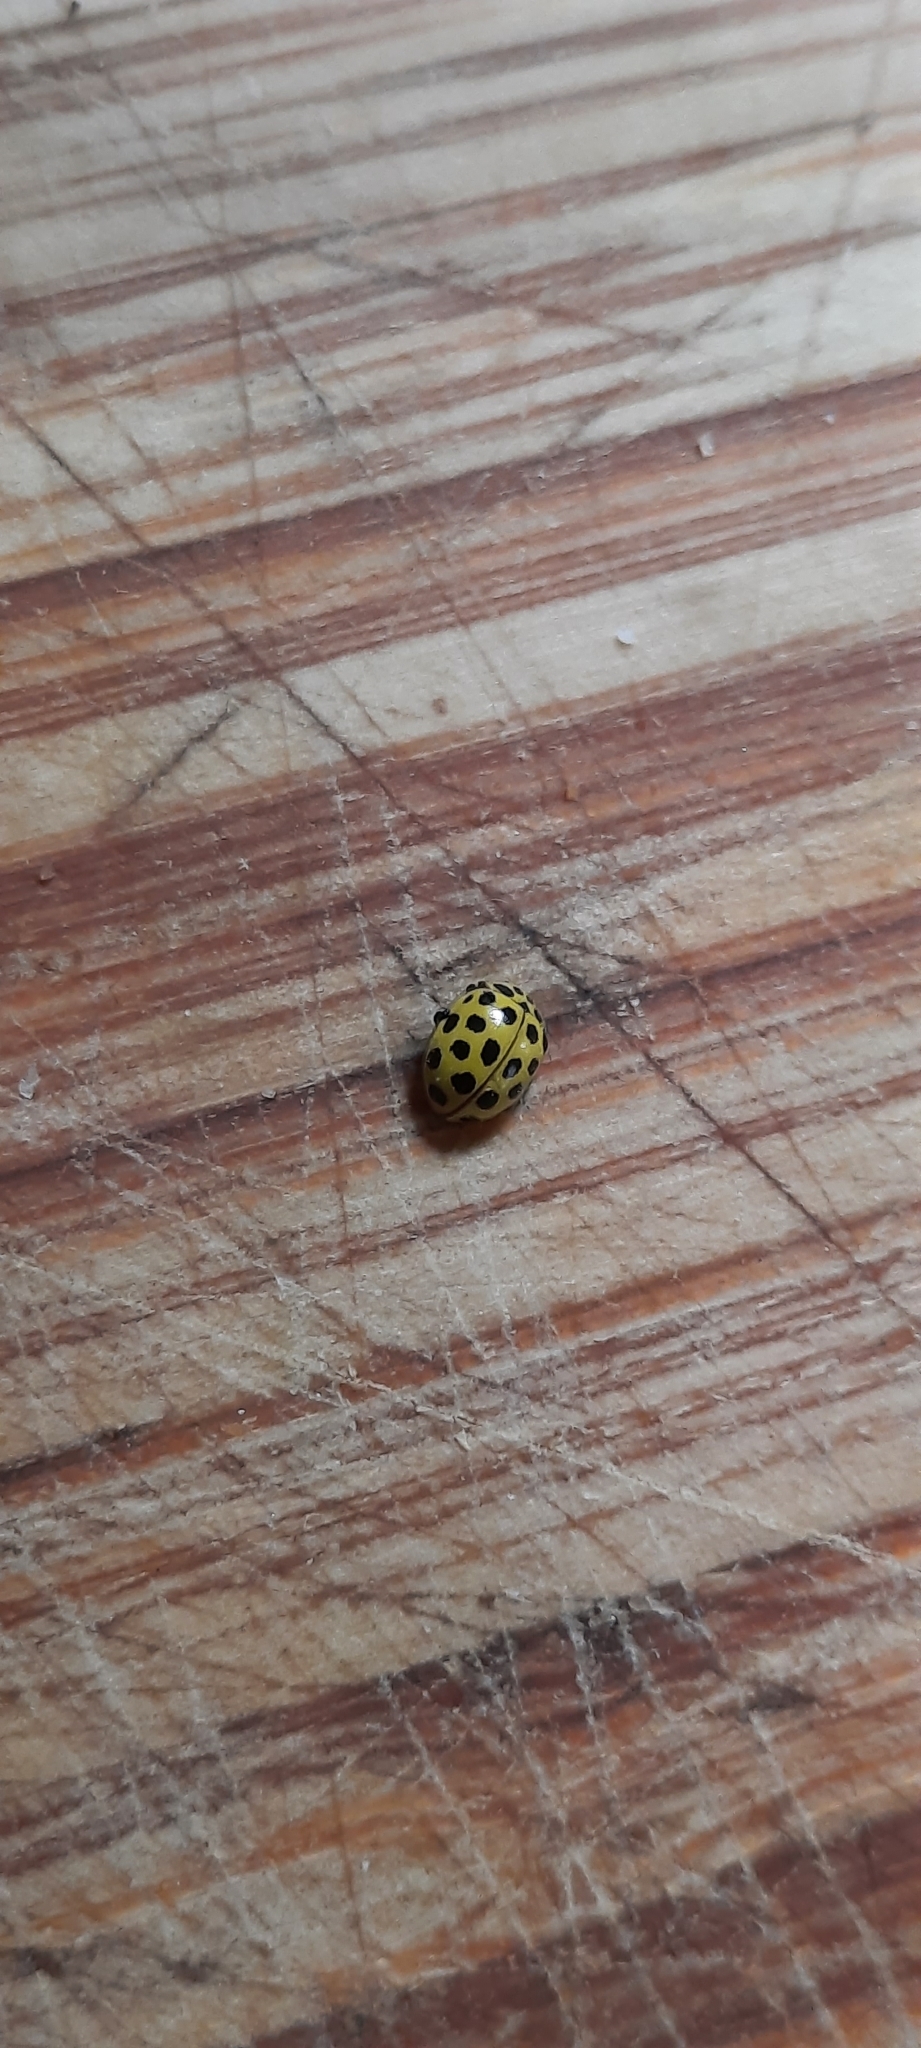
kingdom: Animalia
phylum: Arthropoda
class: Insecta
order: Coleoptera
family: Coccinellidae
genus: Psyllobora
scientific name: Psyllobora vigintiduopunctata
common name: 22-spot ladybird
